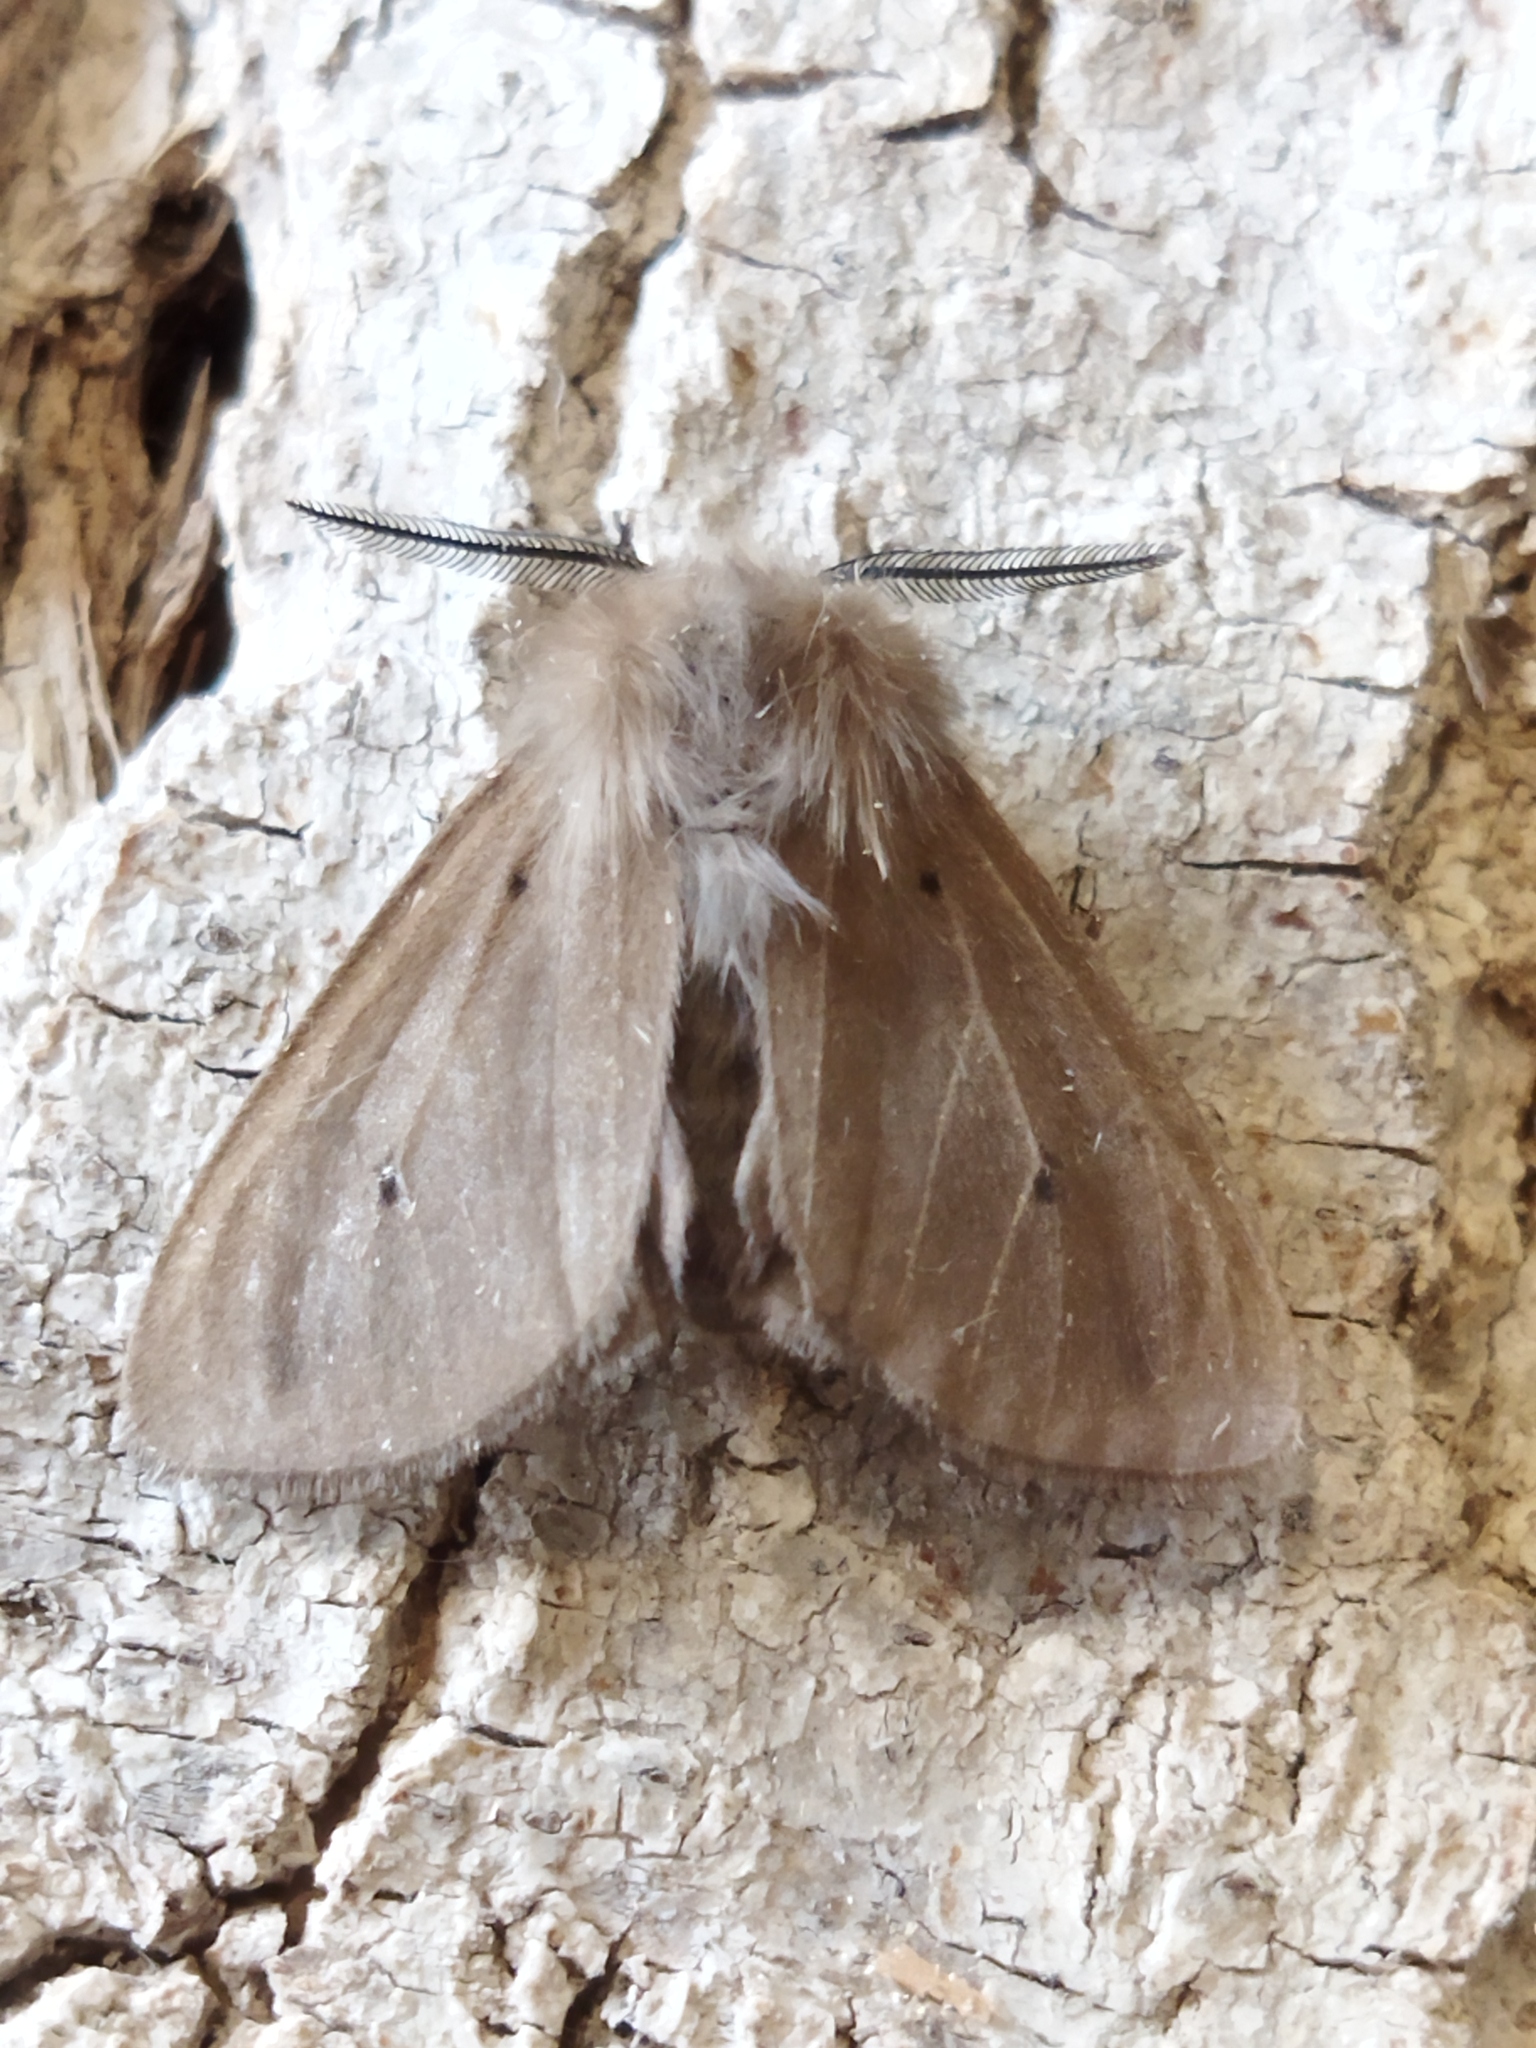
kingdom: Animalia
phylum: Arthropoda
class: Insecta
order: Lepidoptera
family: Erebidae
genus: Diaphora
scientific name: Diaphora mendica
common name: Muslin moth
